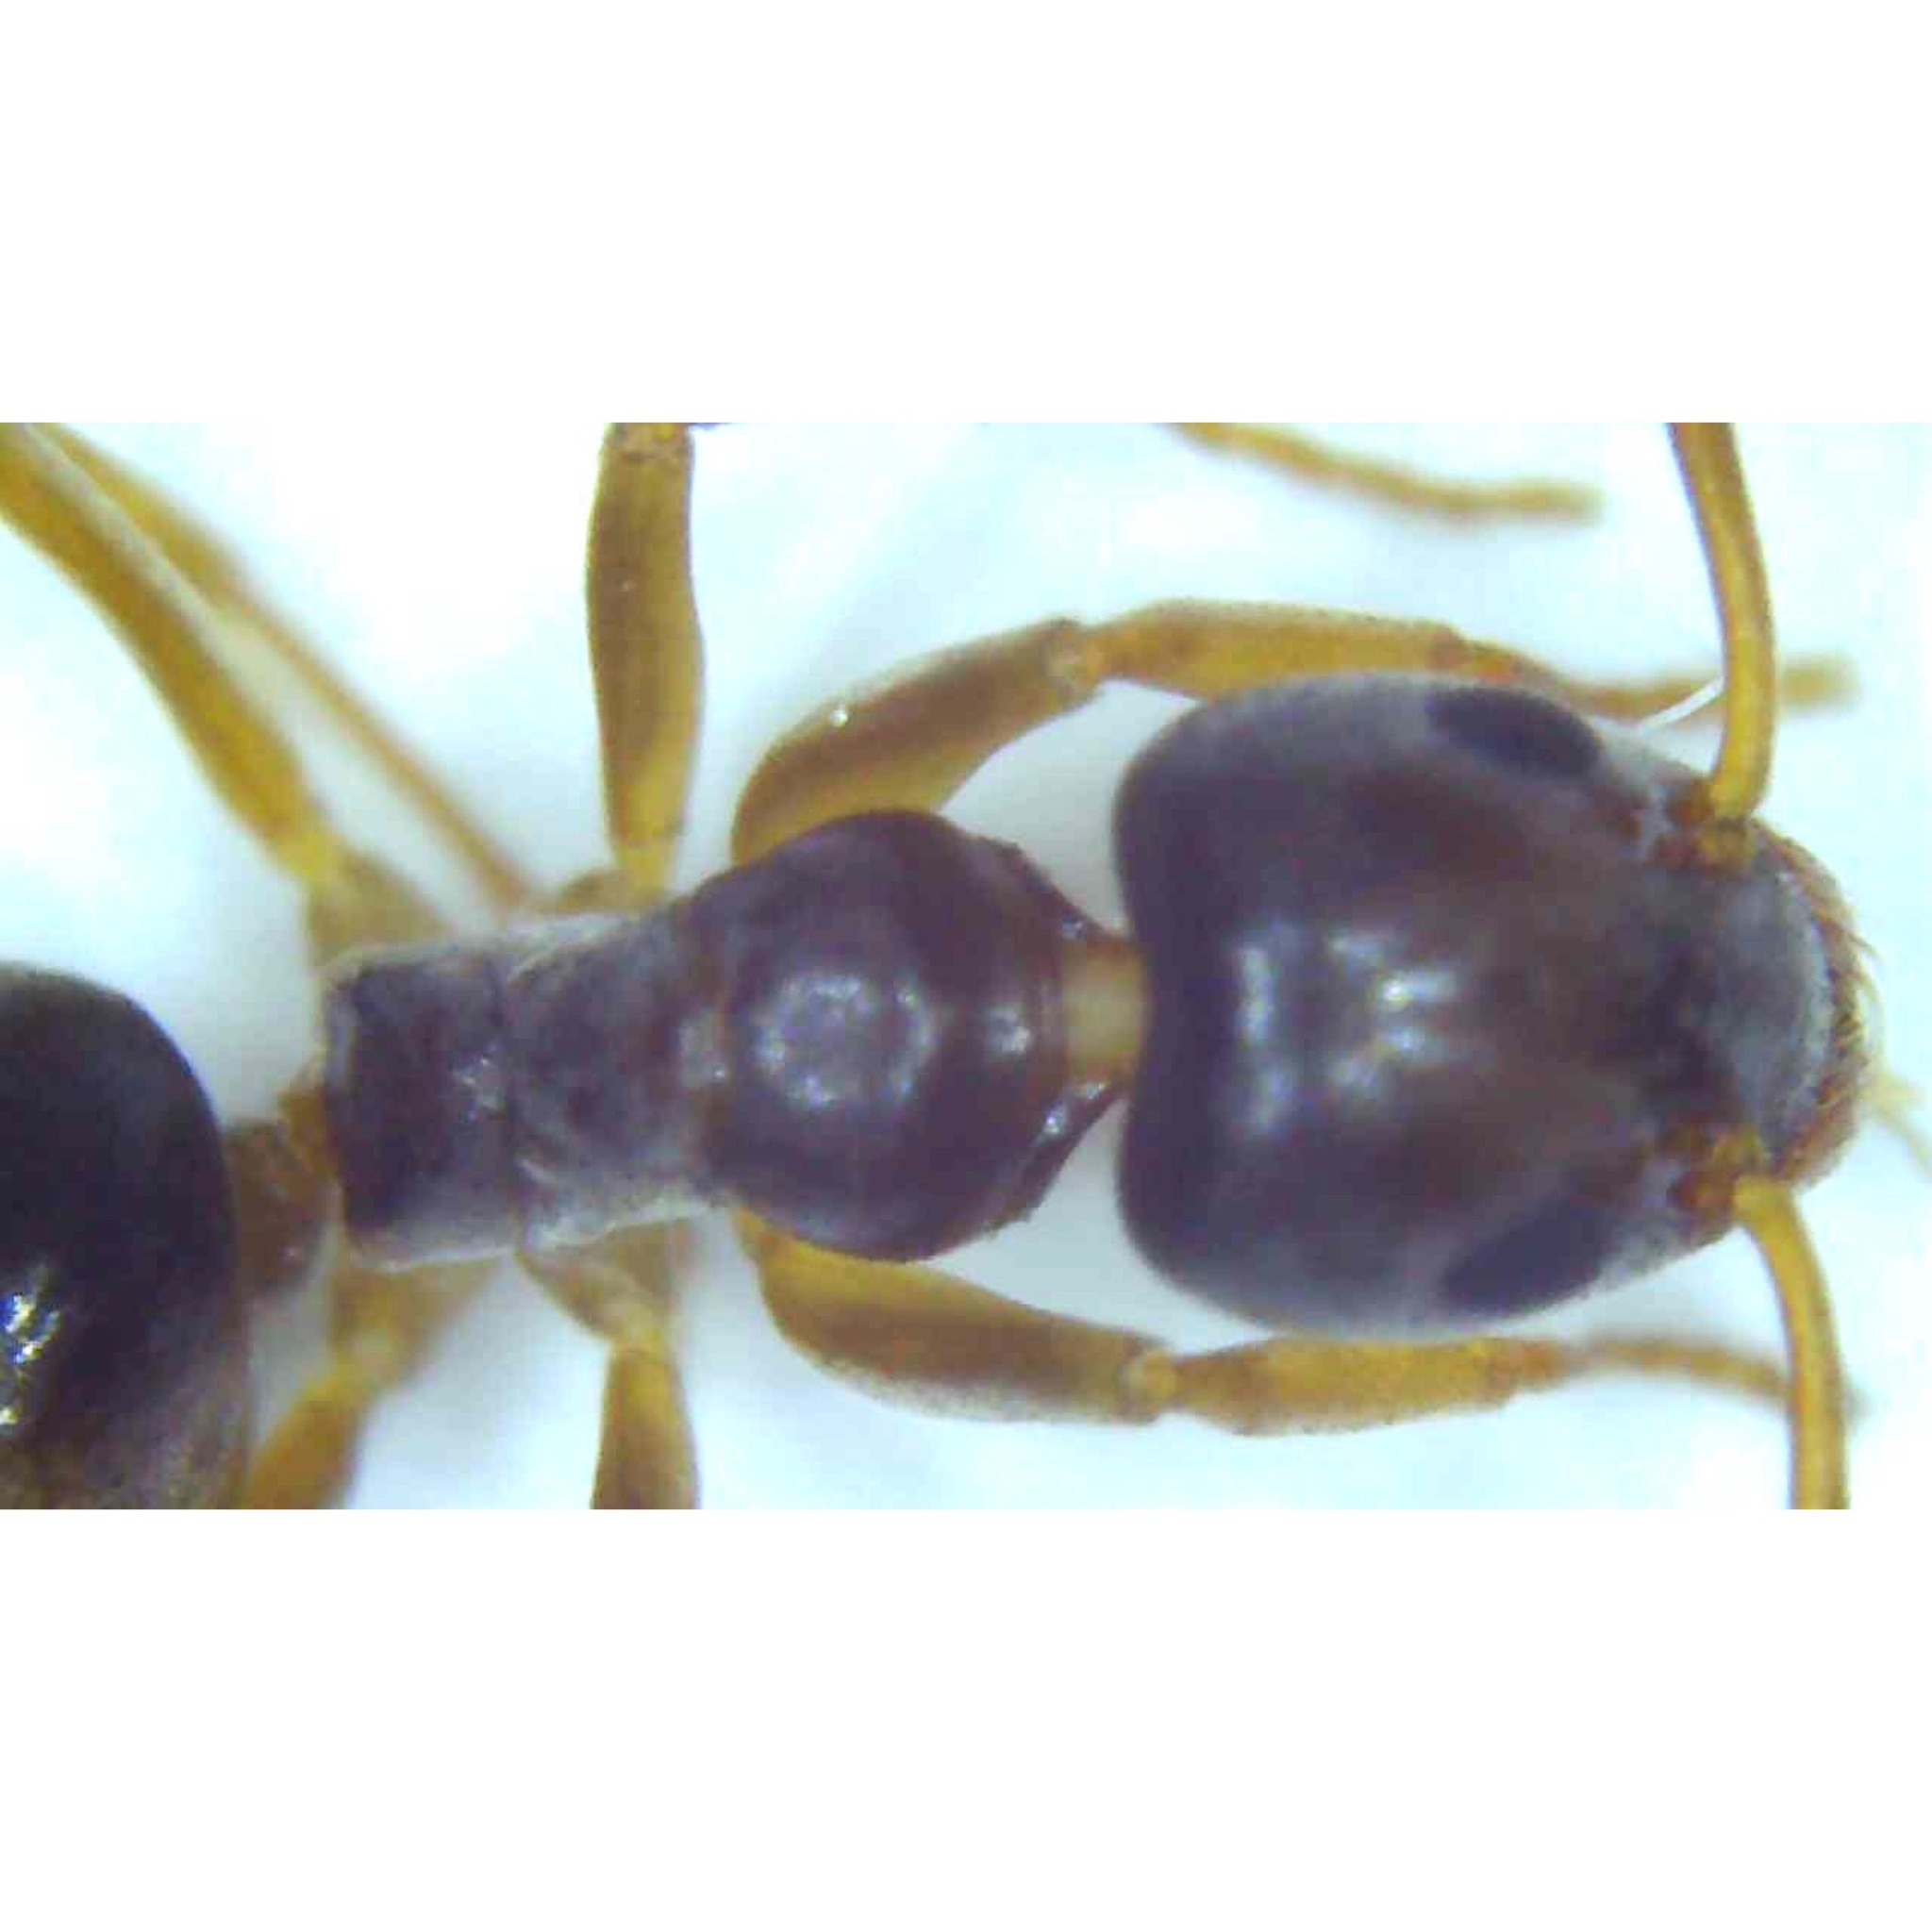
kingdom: Animalia
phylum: Arthropoda
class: Insecta
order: Hymenoptera
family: Formicidae
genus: Tapinoma
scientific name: Tapinoma sessile
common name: Odorous house ant
